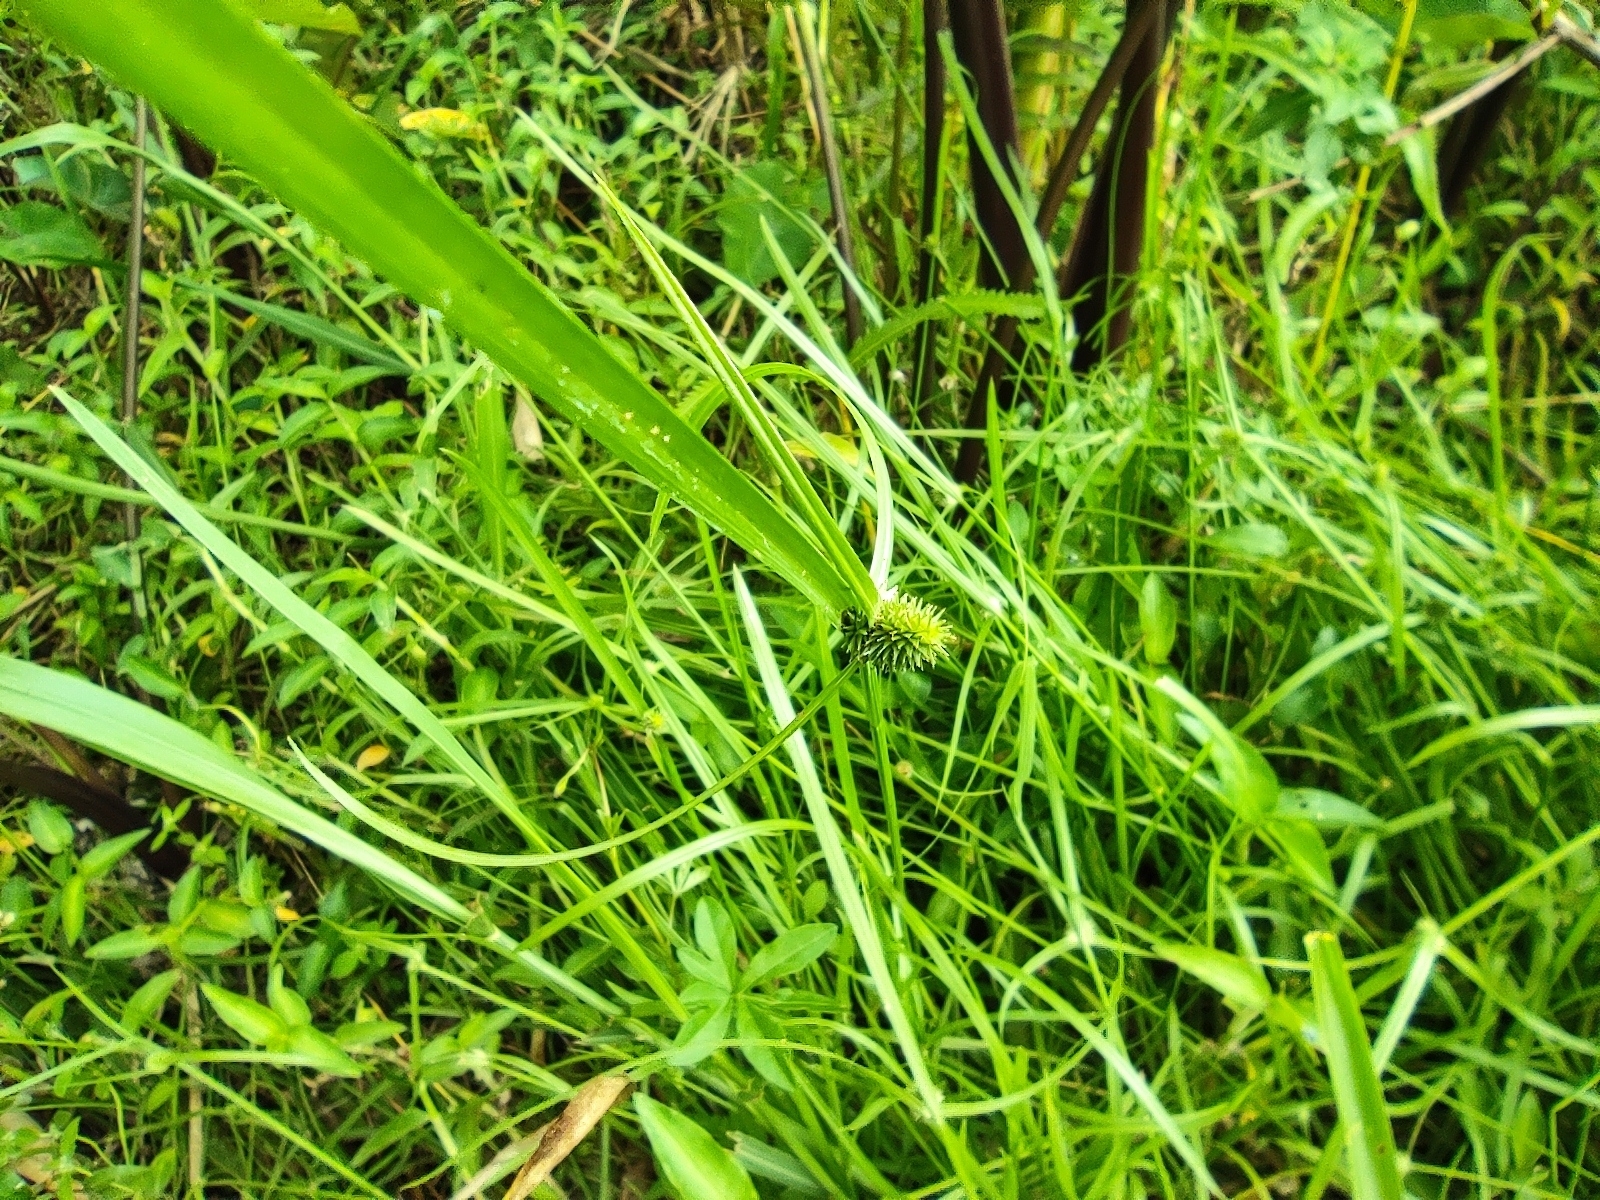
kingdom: Plantae
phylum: Tracheophyta
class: Liliopsida
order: Poales
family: Cyperaceae
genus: Cyperus
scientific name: Cyperus brevifolius
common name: Globe kyllinga
